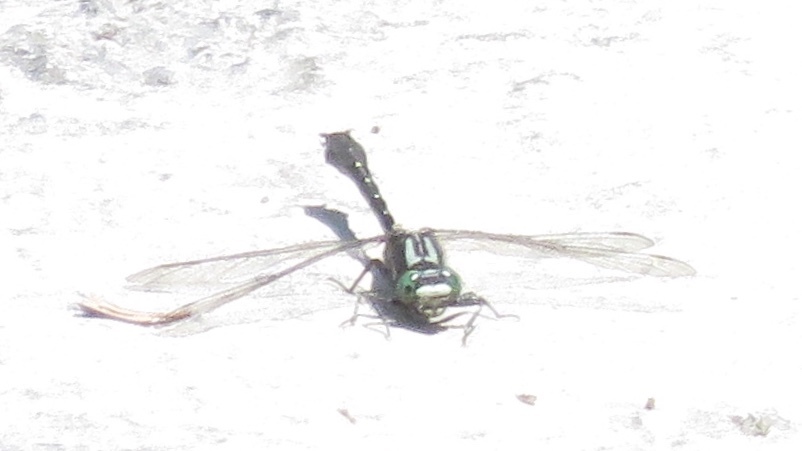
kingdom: Animalia
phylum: Arthropoda
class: Insecta
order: Odonata
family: Gomphidae
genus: Hylogomphus
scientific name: Hylogomphus adelphus
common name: Mustached clubtail
